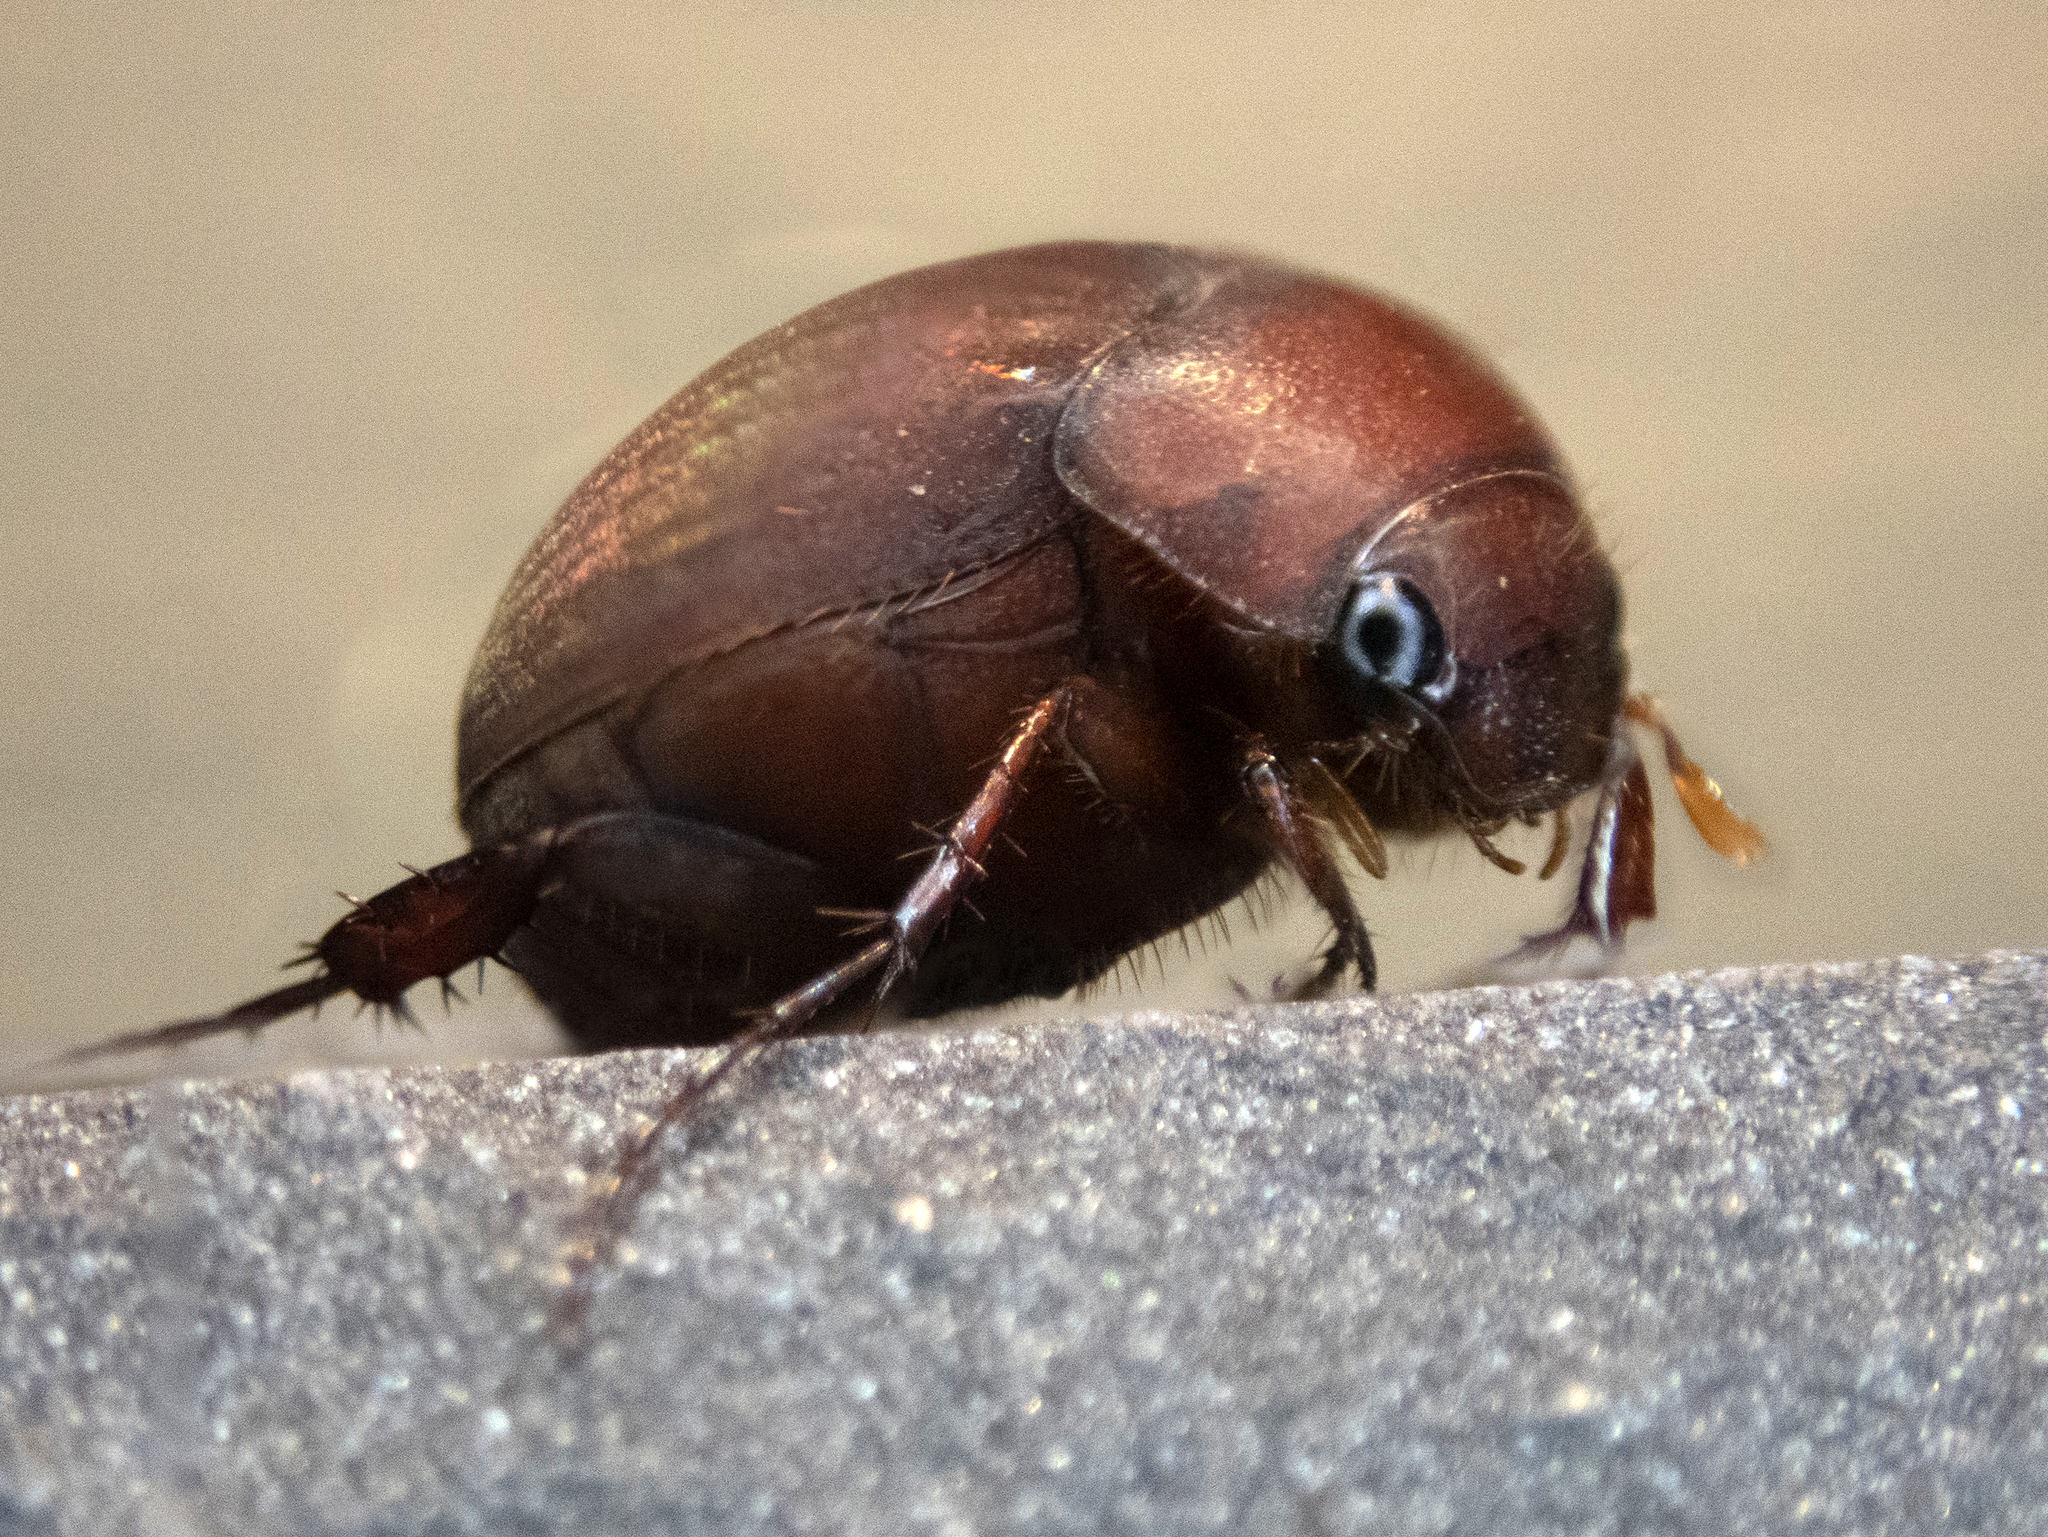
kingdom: Animalia
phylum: Arthropoda
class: Insecta
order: Coleoptera
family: Scarabaeidae
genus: Maladera
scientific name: Maladera formosae
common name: Asiatic garden beetle
